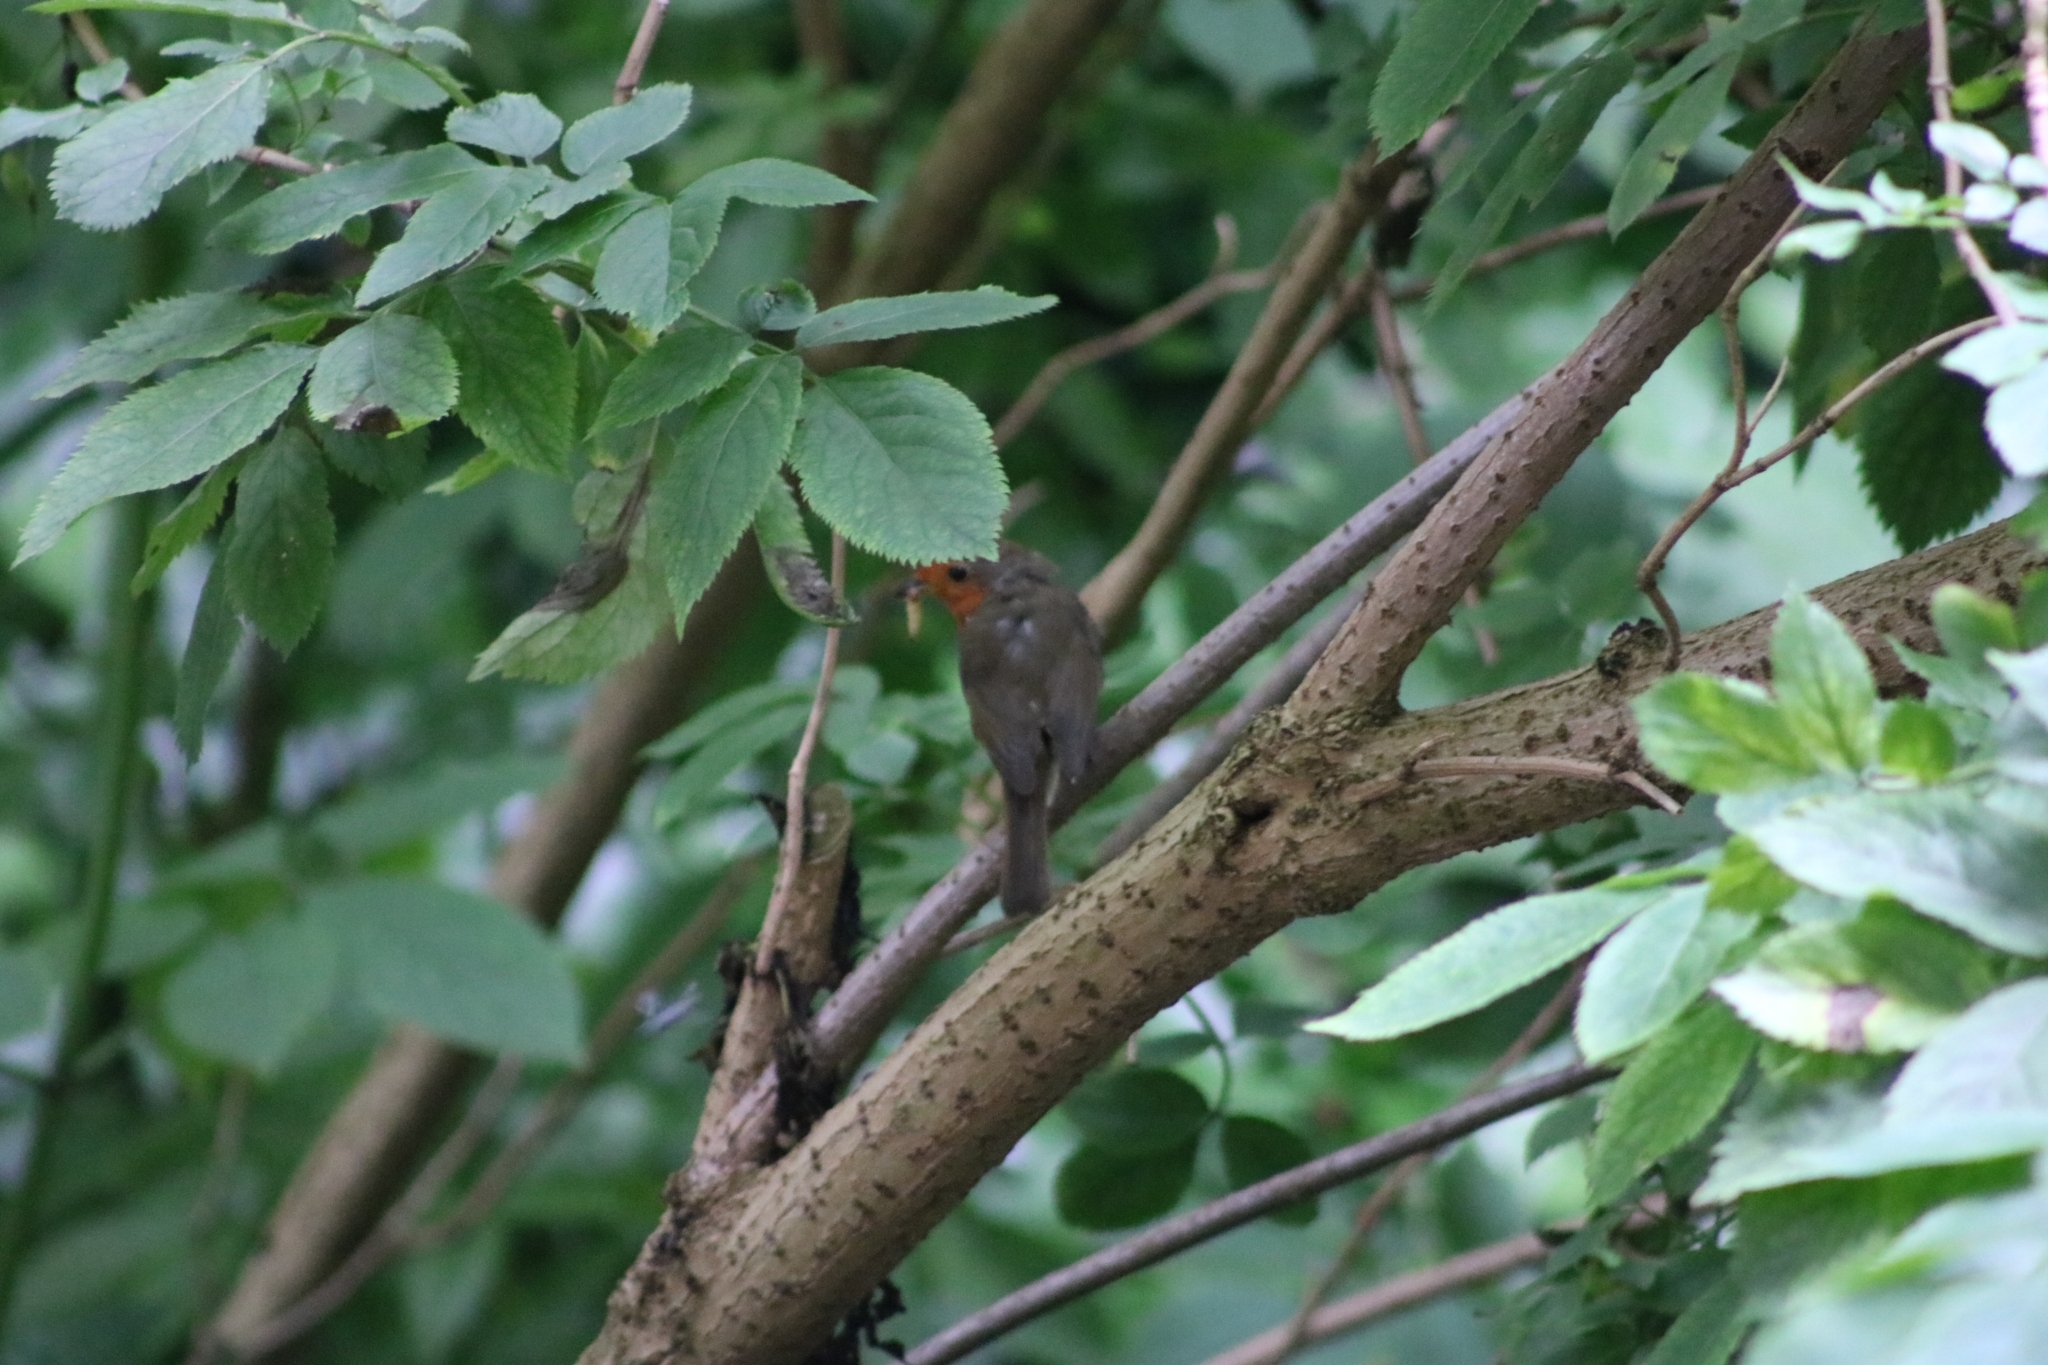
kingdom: Animalia
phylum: Chordata
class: Aves
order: Passeriformes
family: Muscicapidae
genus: Erithacus
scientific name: Erithacus rubecula
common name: European robin
